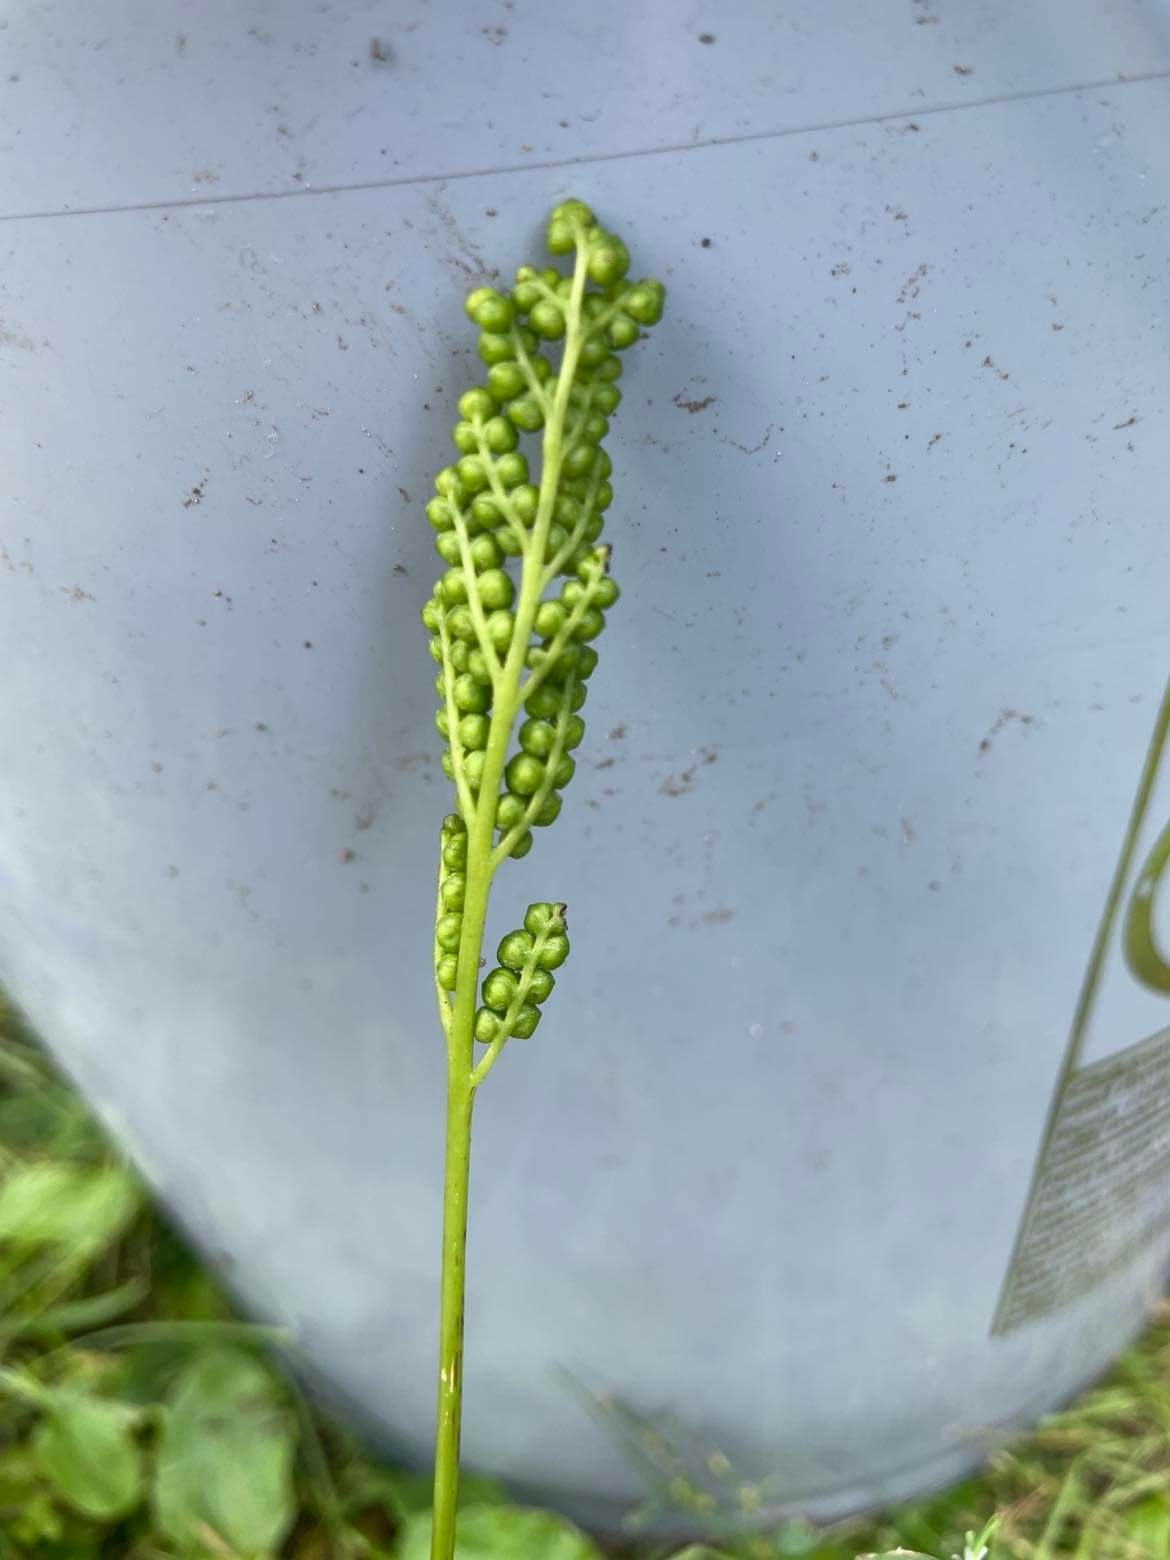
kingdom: Plantae
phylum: Tracheophyta
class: Polypodiopsida
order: Polypodiales
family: Onocleaceae
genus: Onoclea
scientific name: Onoclea sensibilis
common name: Sensitive fern
